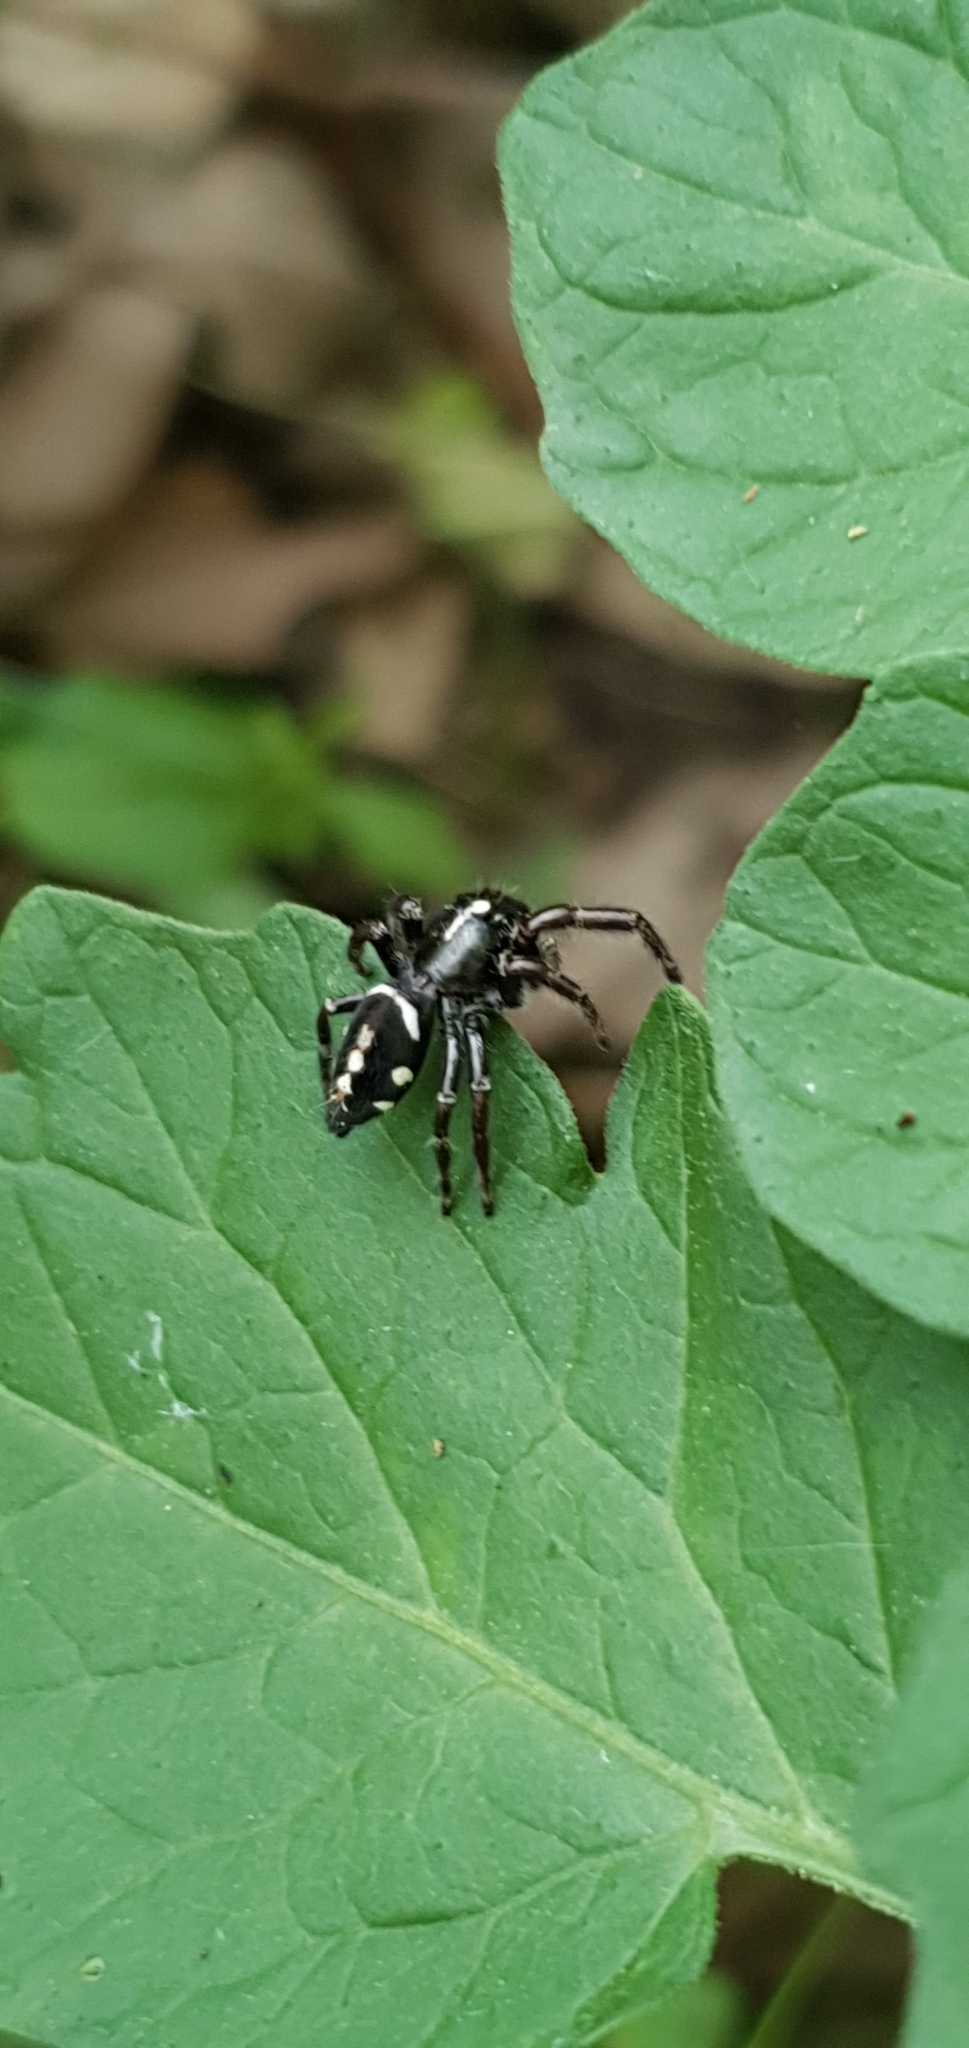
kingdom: Animalia
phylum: Arthropoda
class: Arachnida
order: Araneae
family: Salticidae
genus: Sandalodes
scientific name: Sandalodes scopifer
